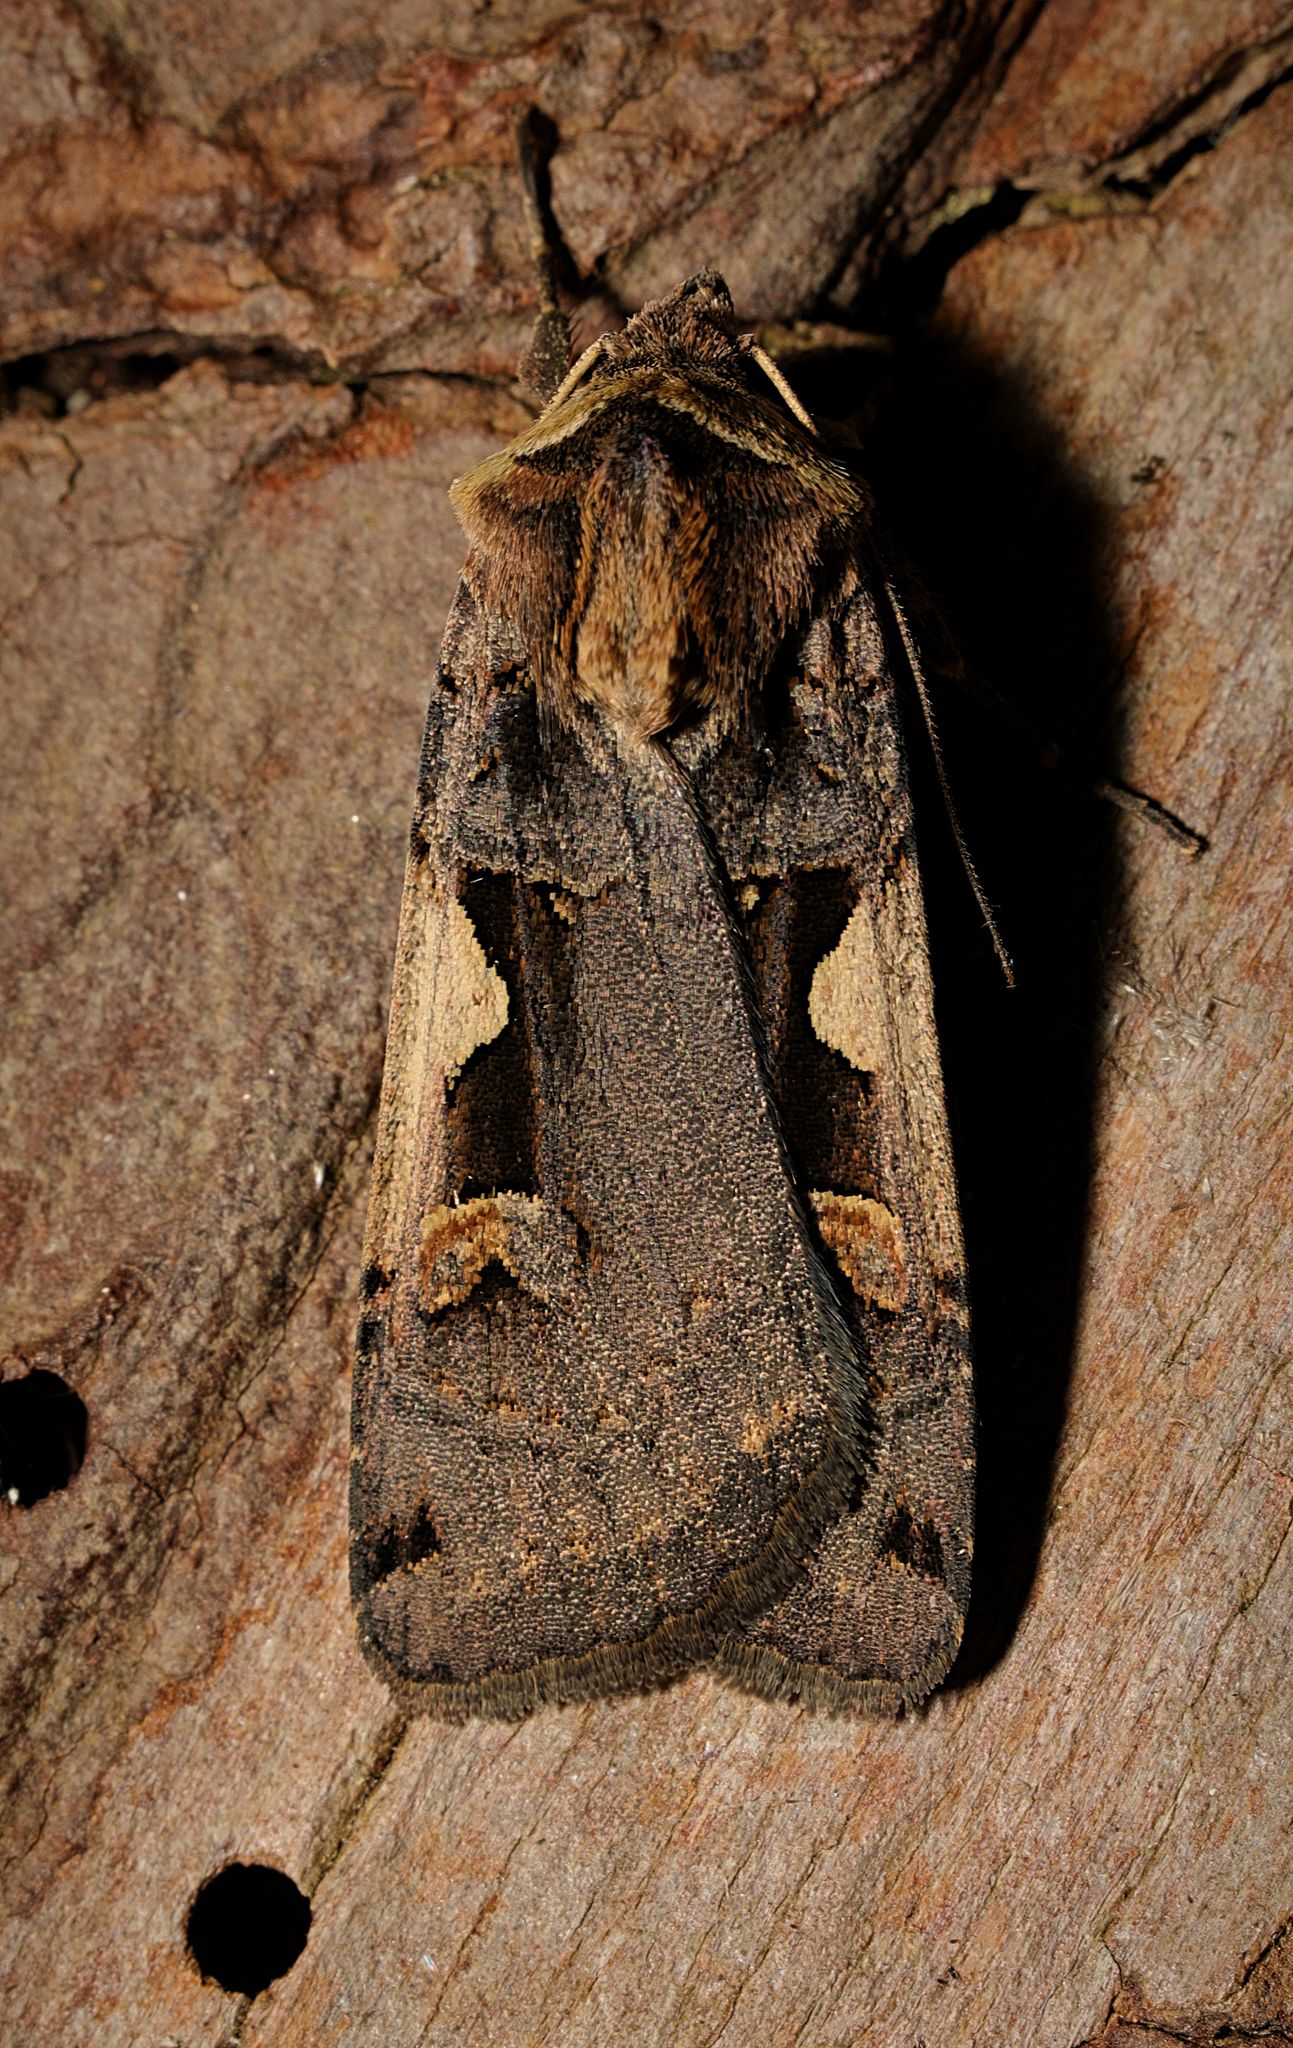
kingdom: Animalia
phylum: Arthropoda
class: Insecta
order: Lepidoptera
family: Noctuidae
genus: Xestia
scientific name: Xestia c-nigrum
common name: Setaceous hebrew character
